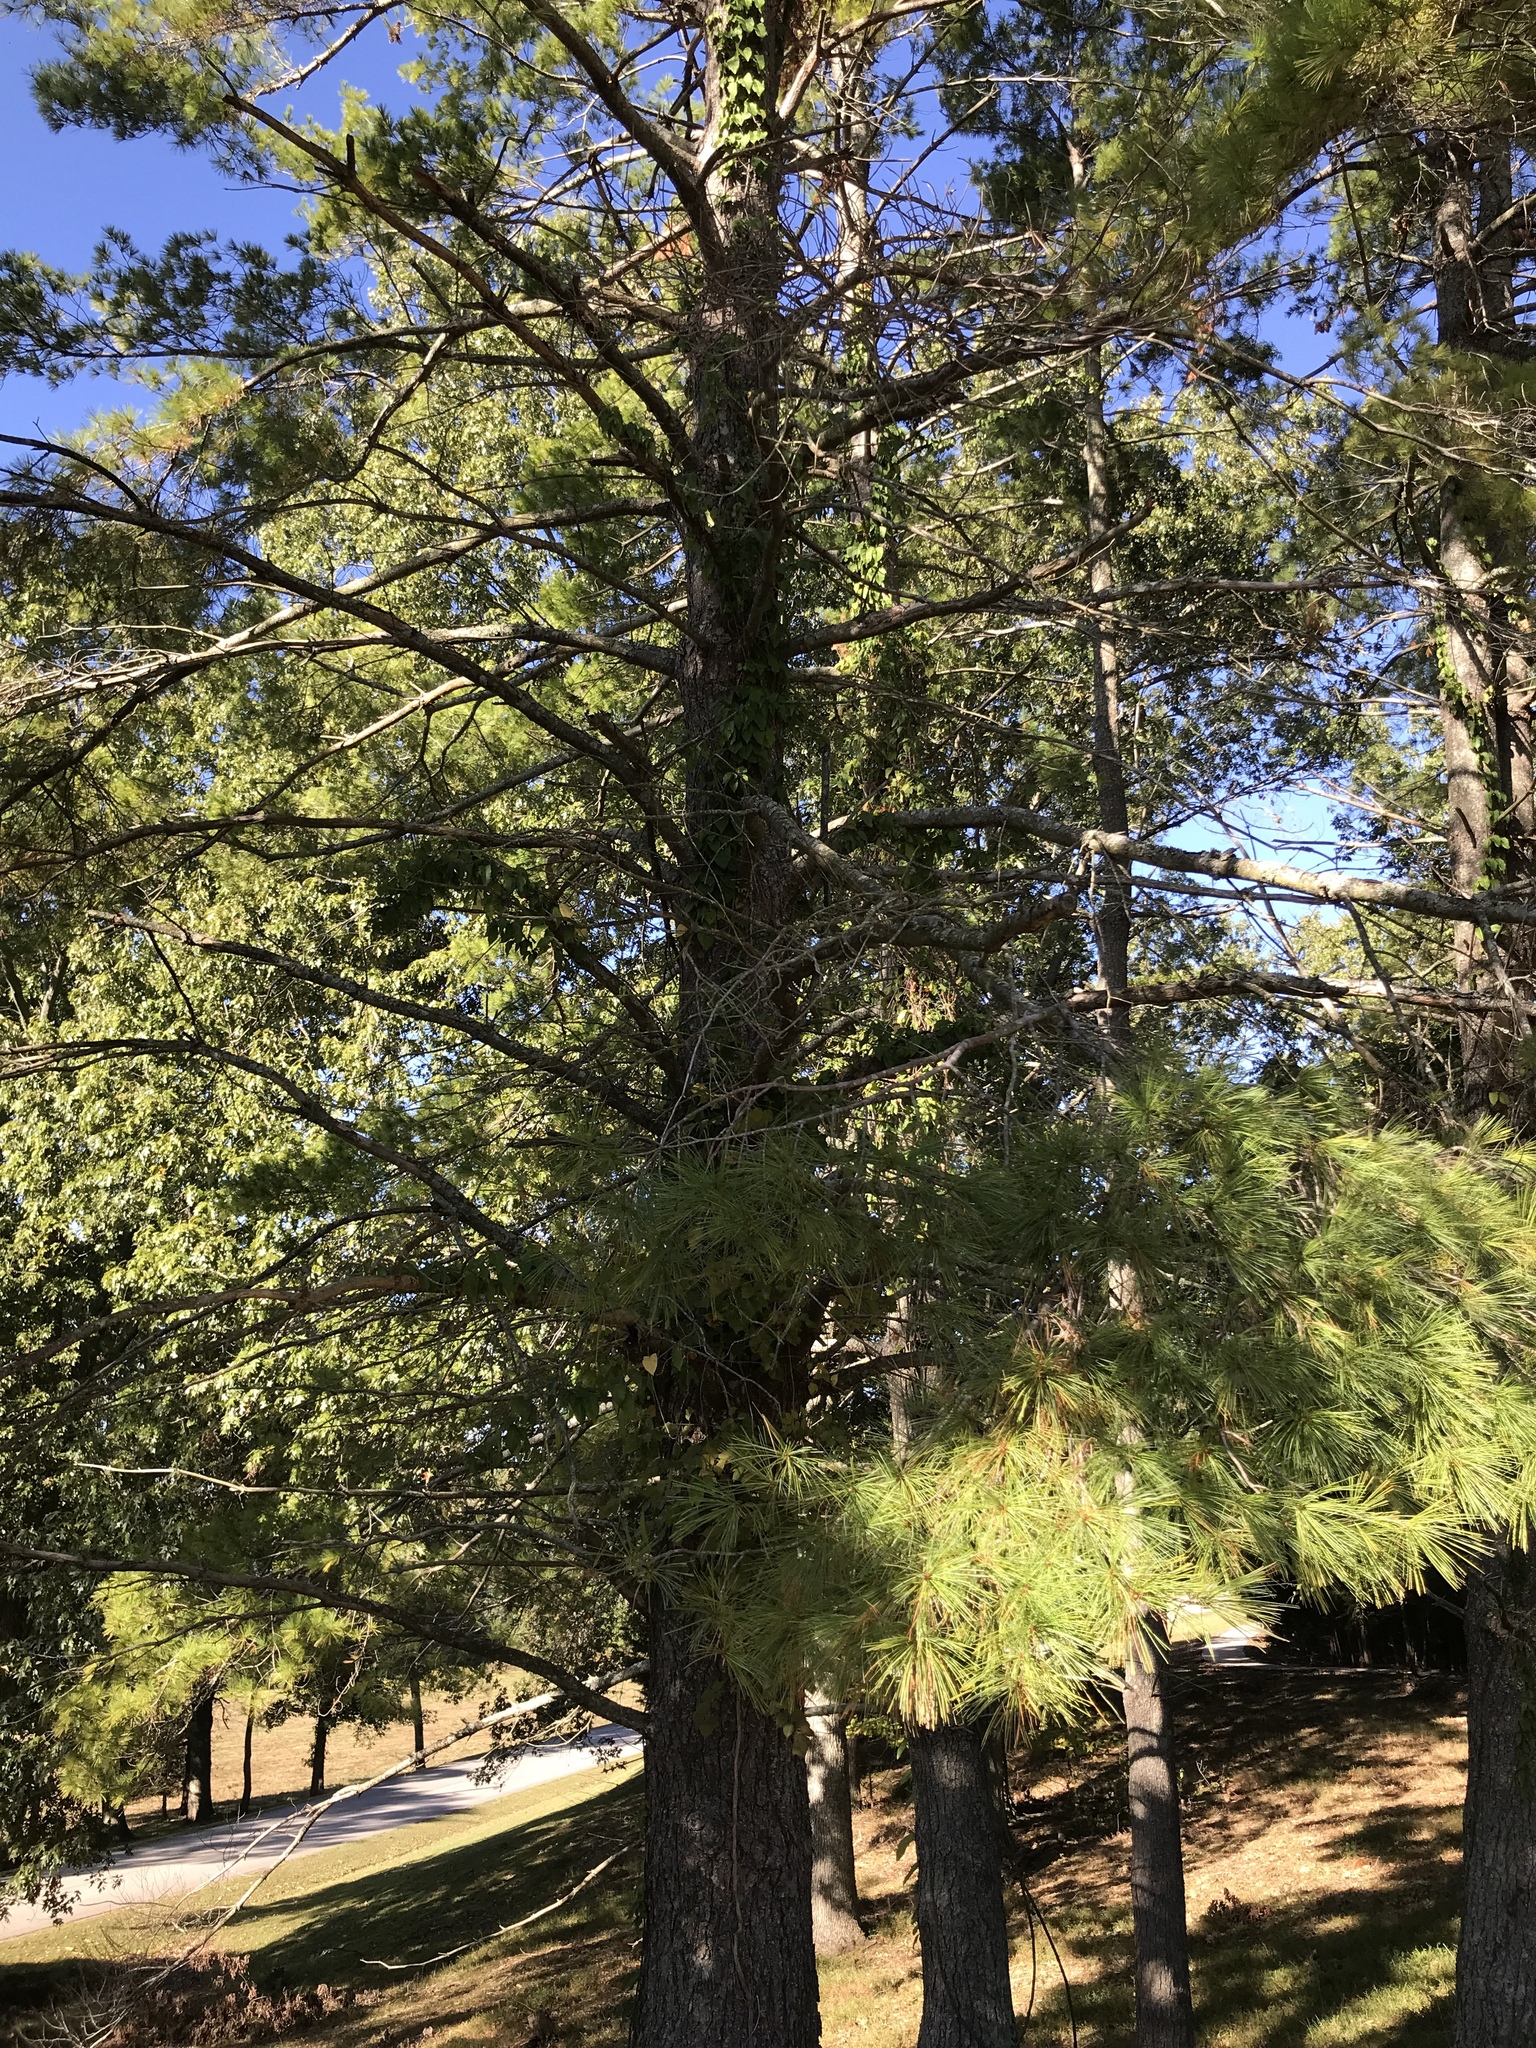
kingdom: Plantae
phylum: Tracheophyta
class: Pinopsida
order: Pinales
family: Pinaceae
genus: Pinus
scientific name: Pinus strobus
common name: Weymouth pine
